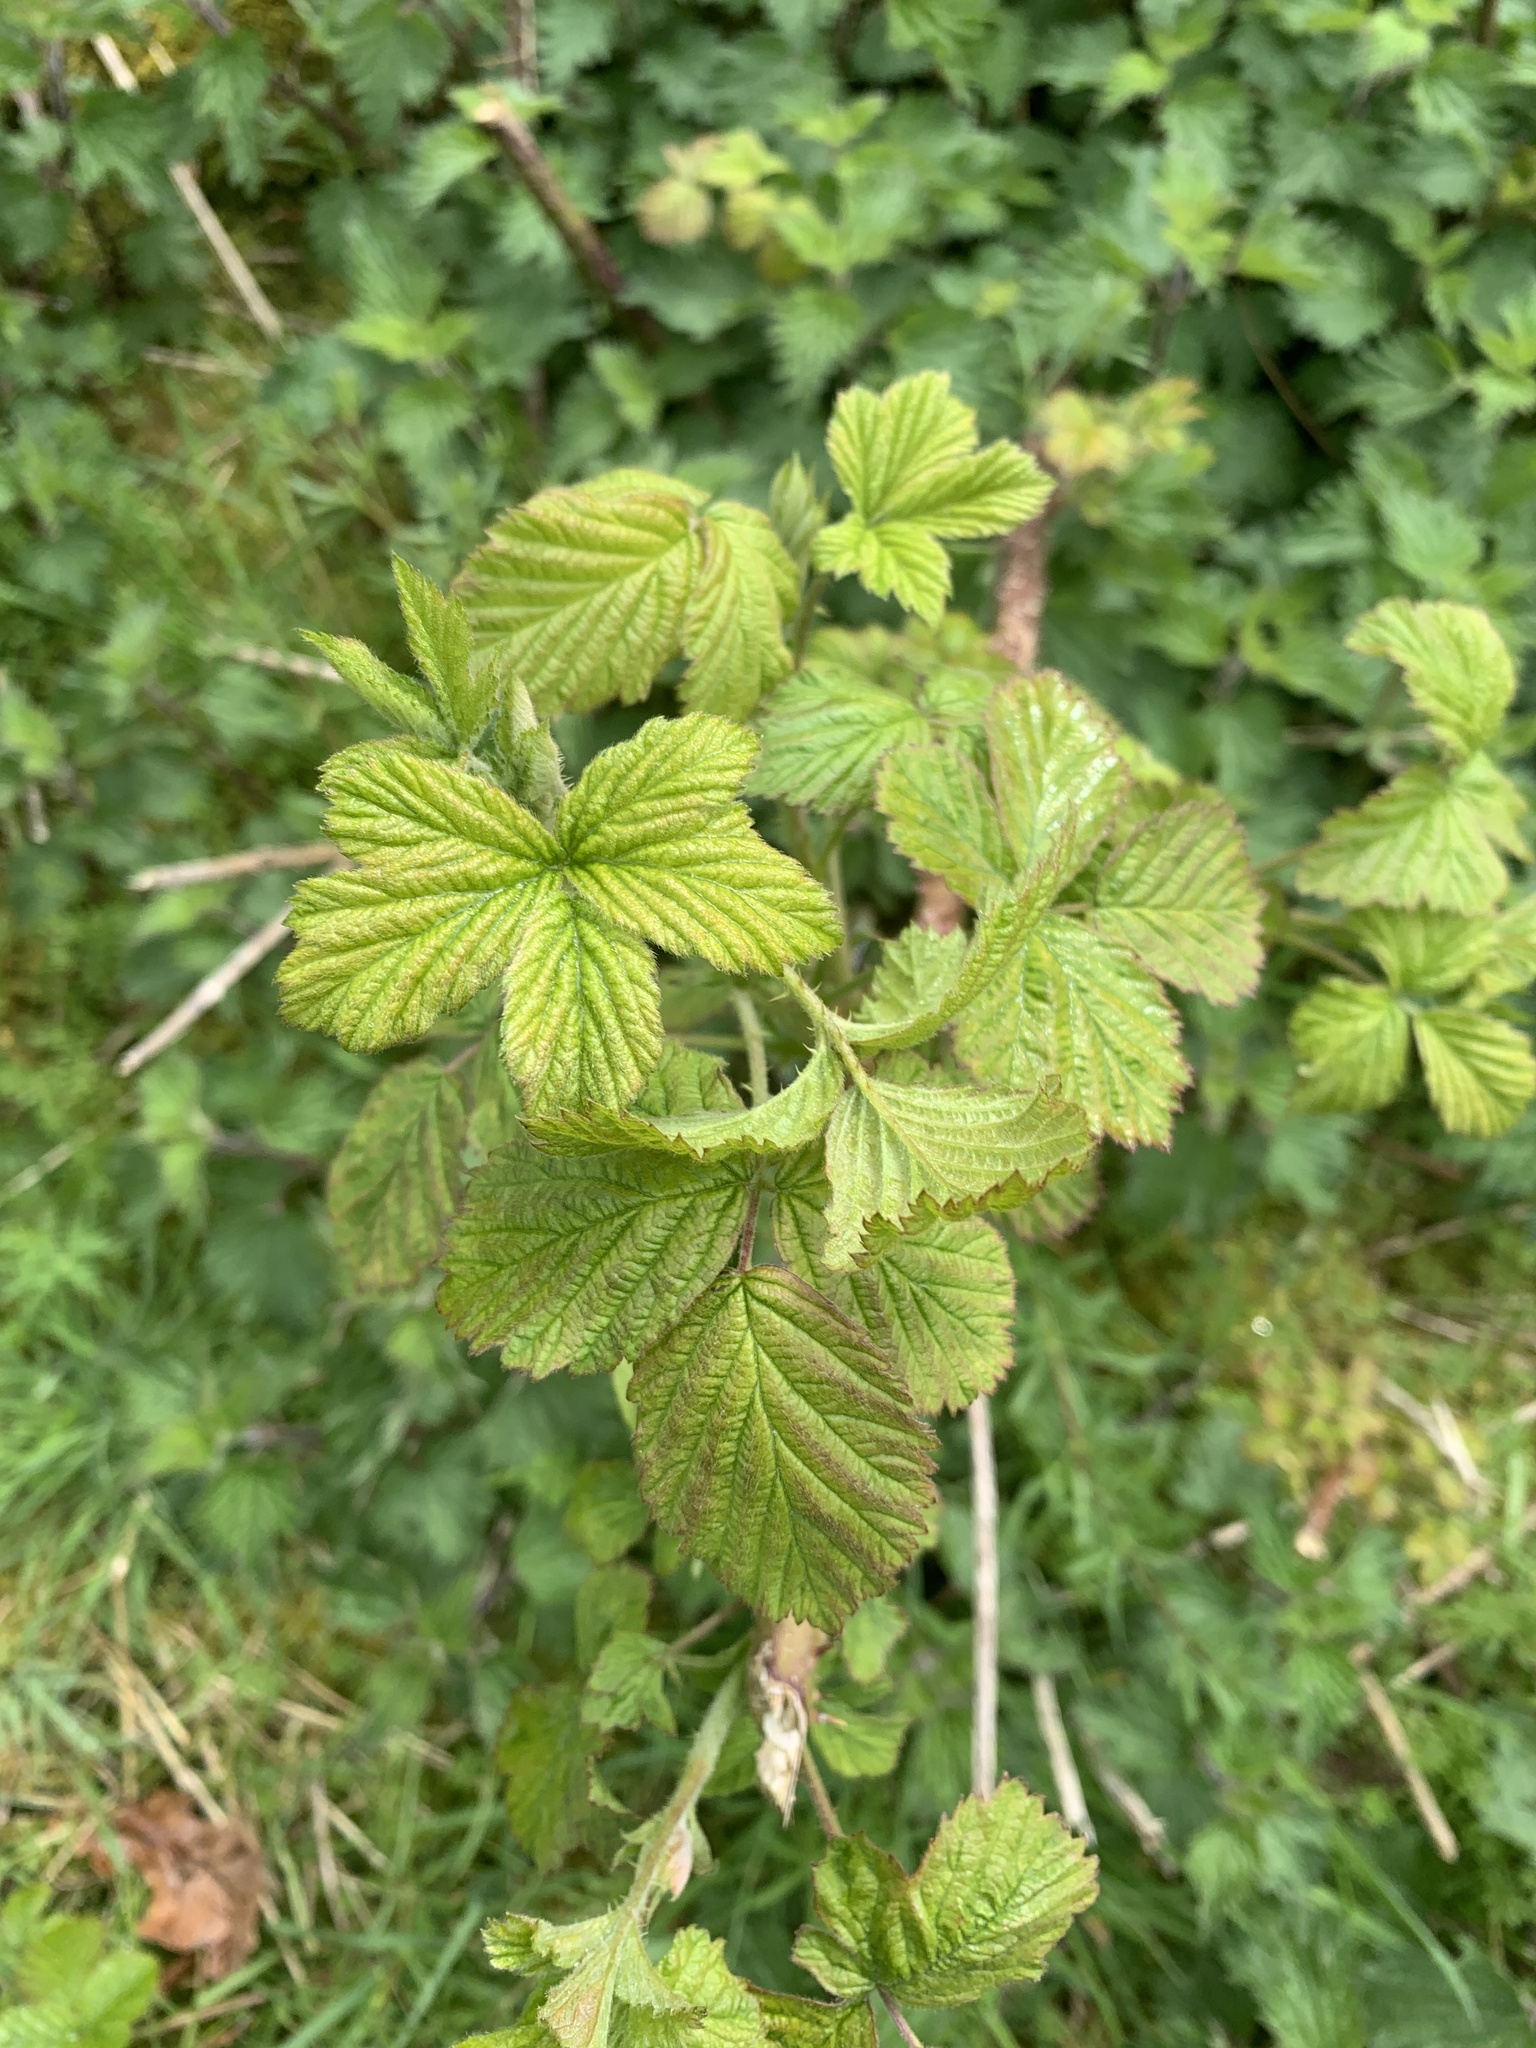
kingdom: Plantae
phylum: Tracheophyta
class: Magnoliopsida
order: Rosales
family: Rosaceae
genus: Rubus
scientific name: Rubus fruticosus
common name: Blackberry, bramble
